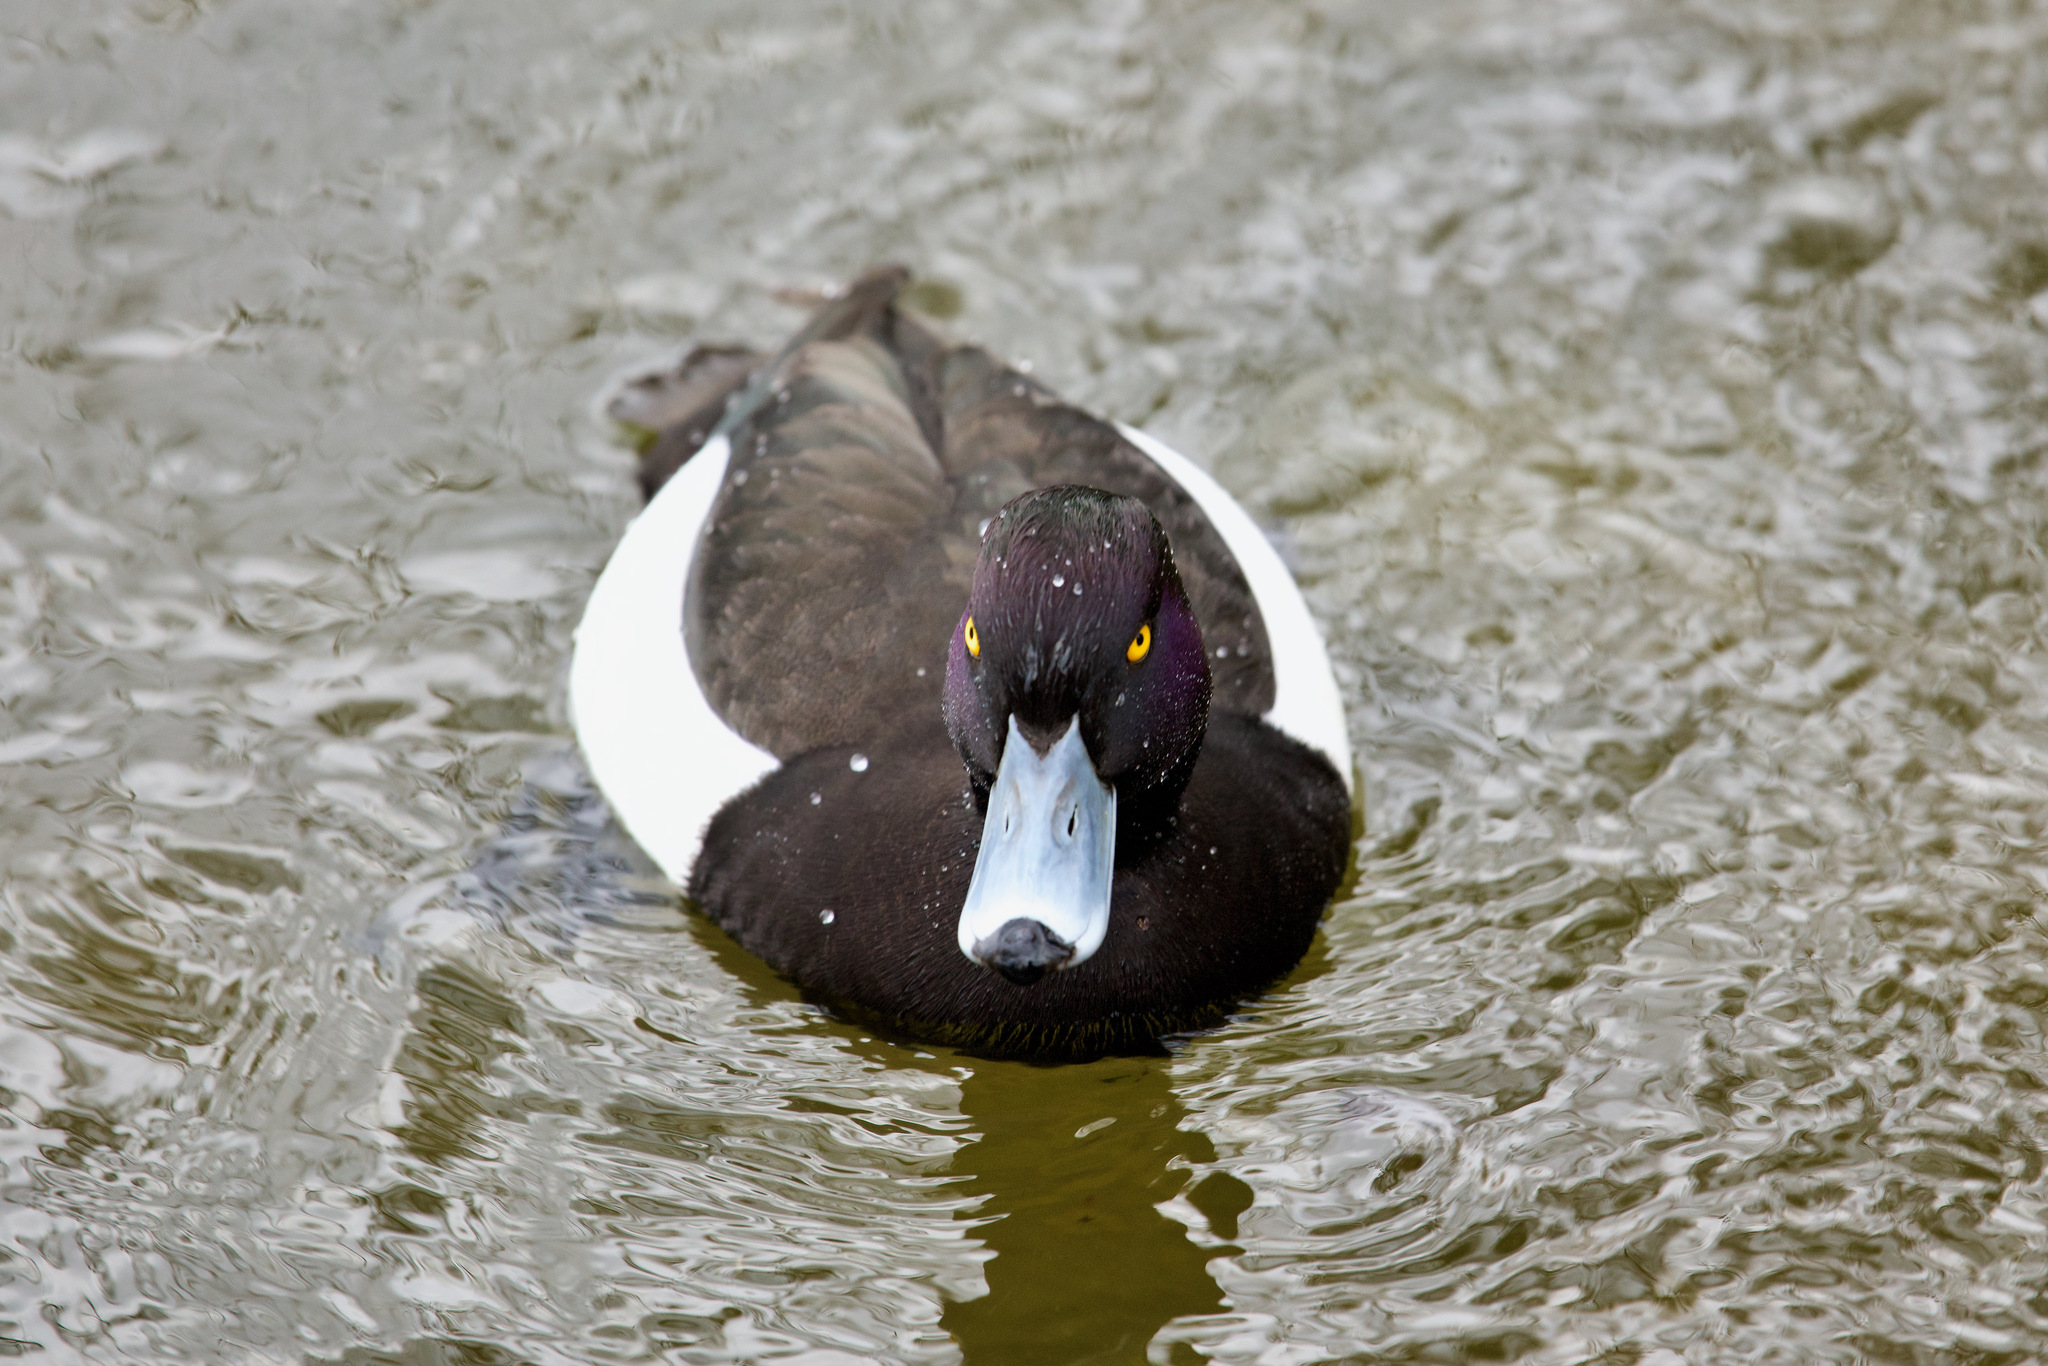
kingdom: Animalia
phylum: Chordata
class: Aves
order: Anseriformes
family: Anatidae
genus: Aythya
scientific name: Aythya fuligula
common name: Tufted duck
